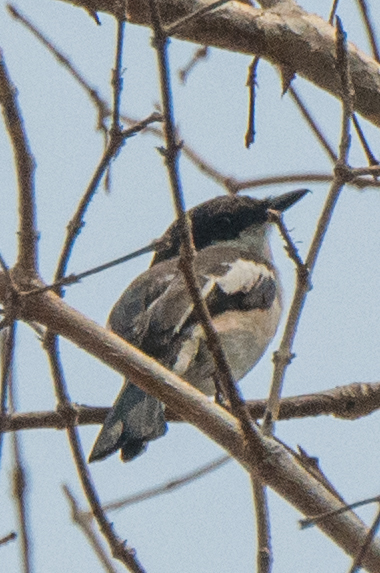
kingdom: Animalia
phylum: Chordata
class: Aves
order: Passeriformes
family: Tephrodornithidae
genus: Hemipus
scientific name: Hemipus picatus
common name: Bar-winged flycatcher-shrike
